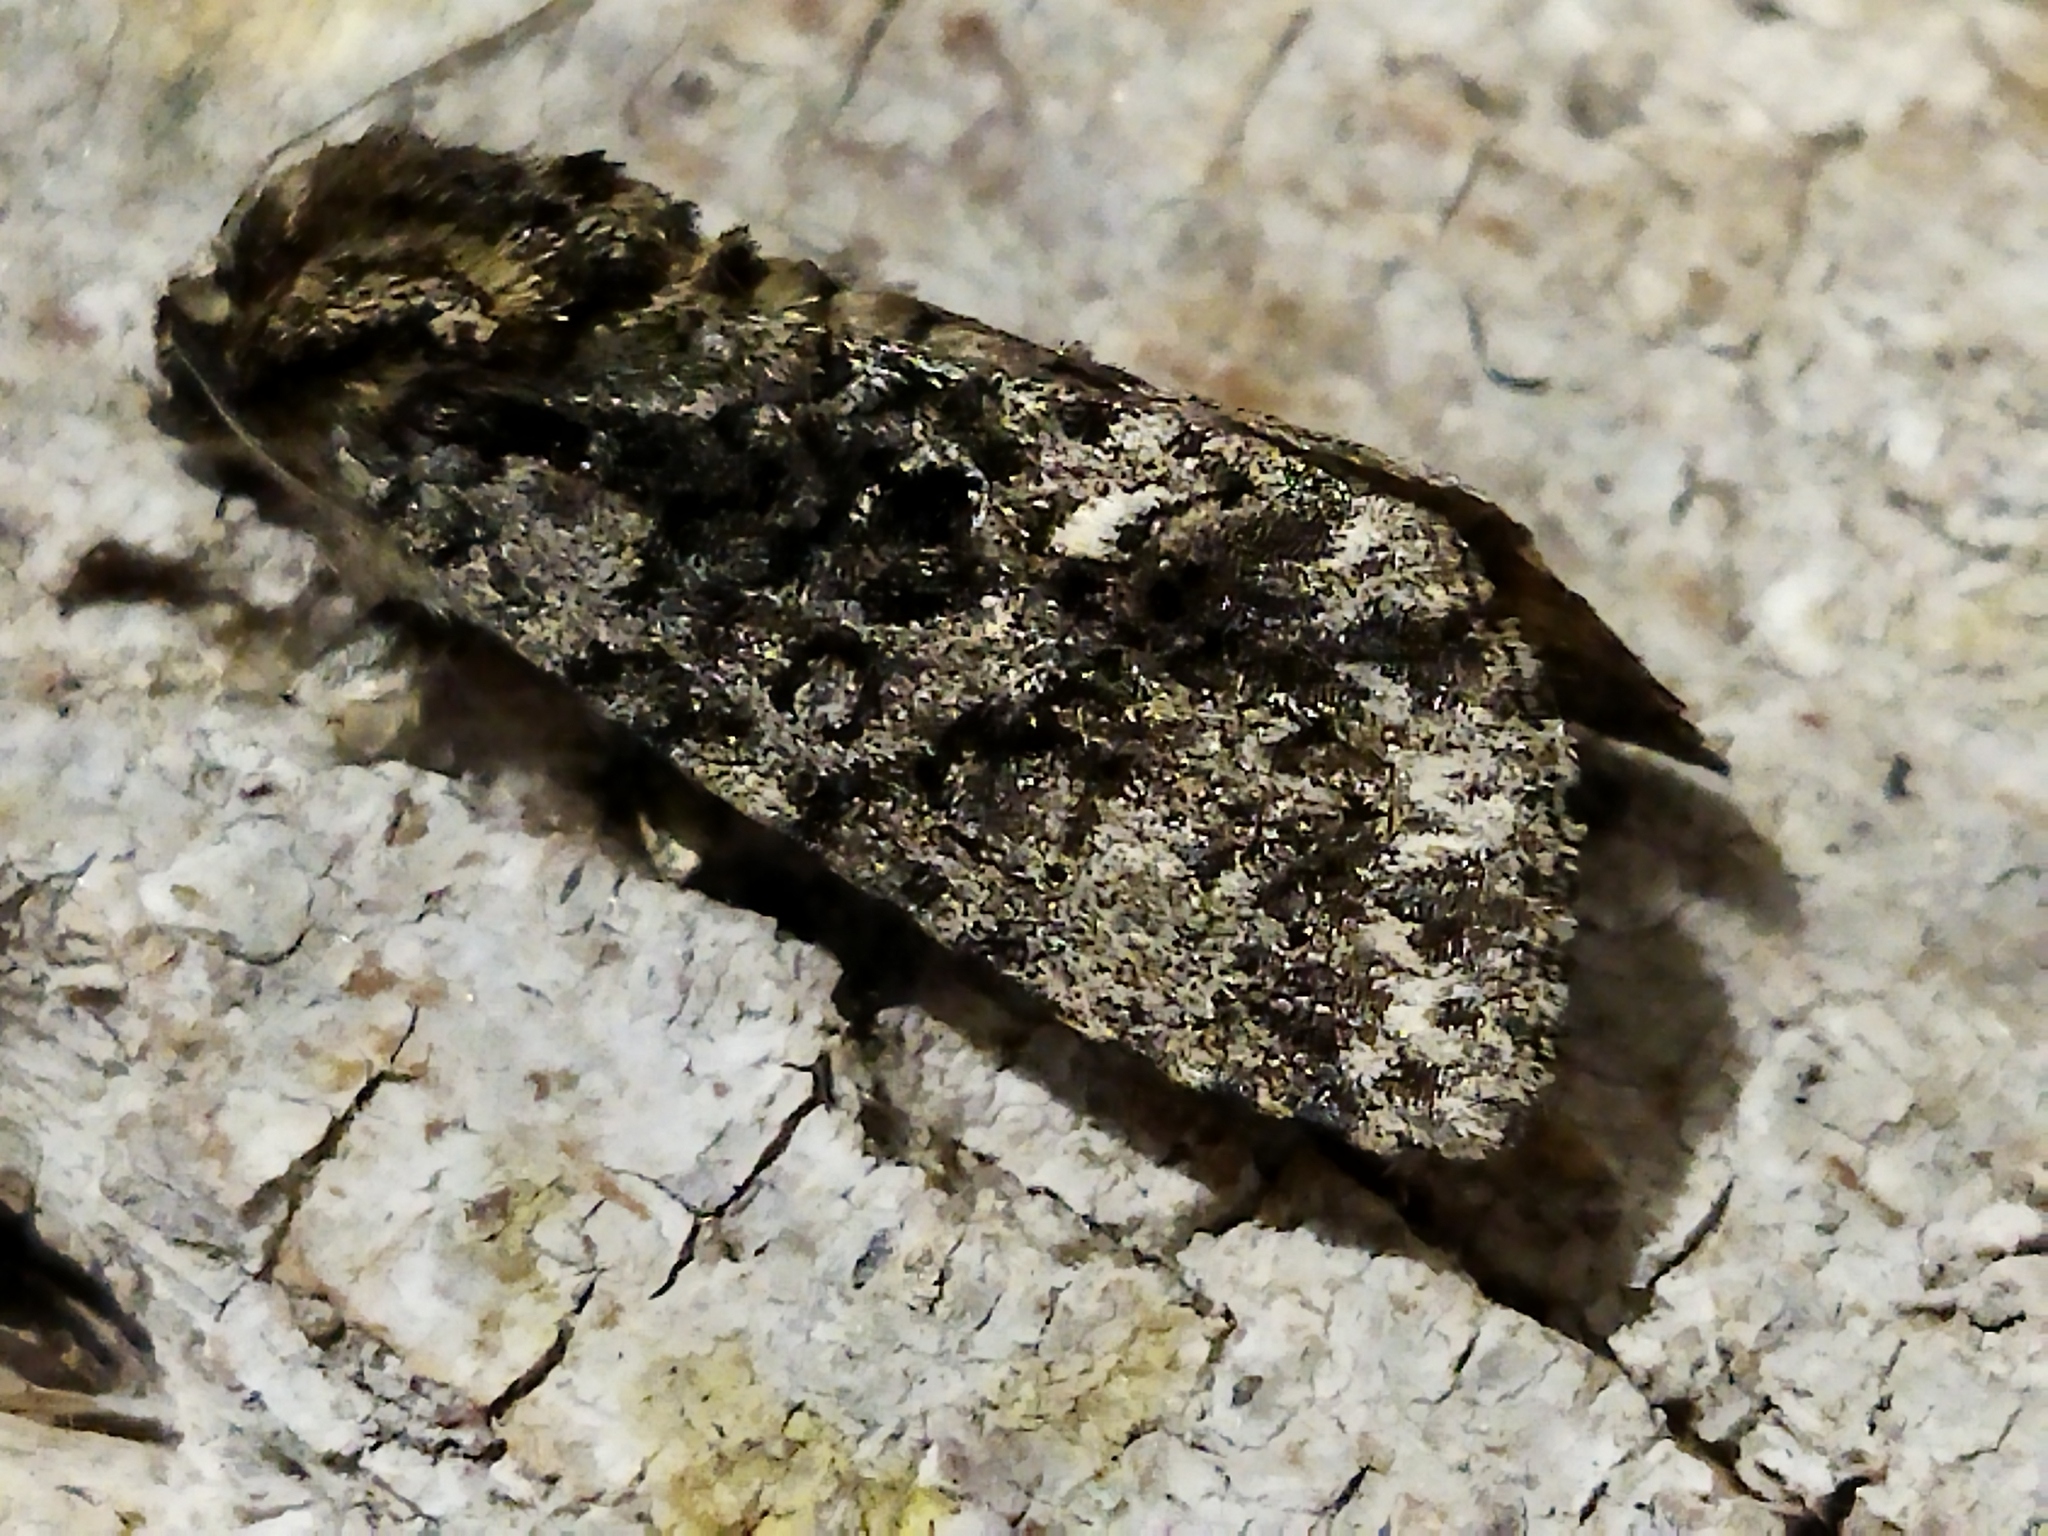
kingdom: Animalia
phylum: Arthropoda
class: Insecta
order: Lepidoptera
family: Noctuidae
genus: Acronicta
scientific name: Acronicta rumicis
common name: Knot grass
